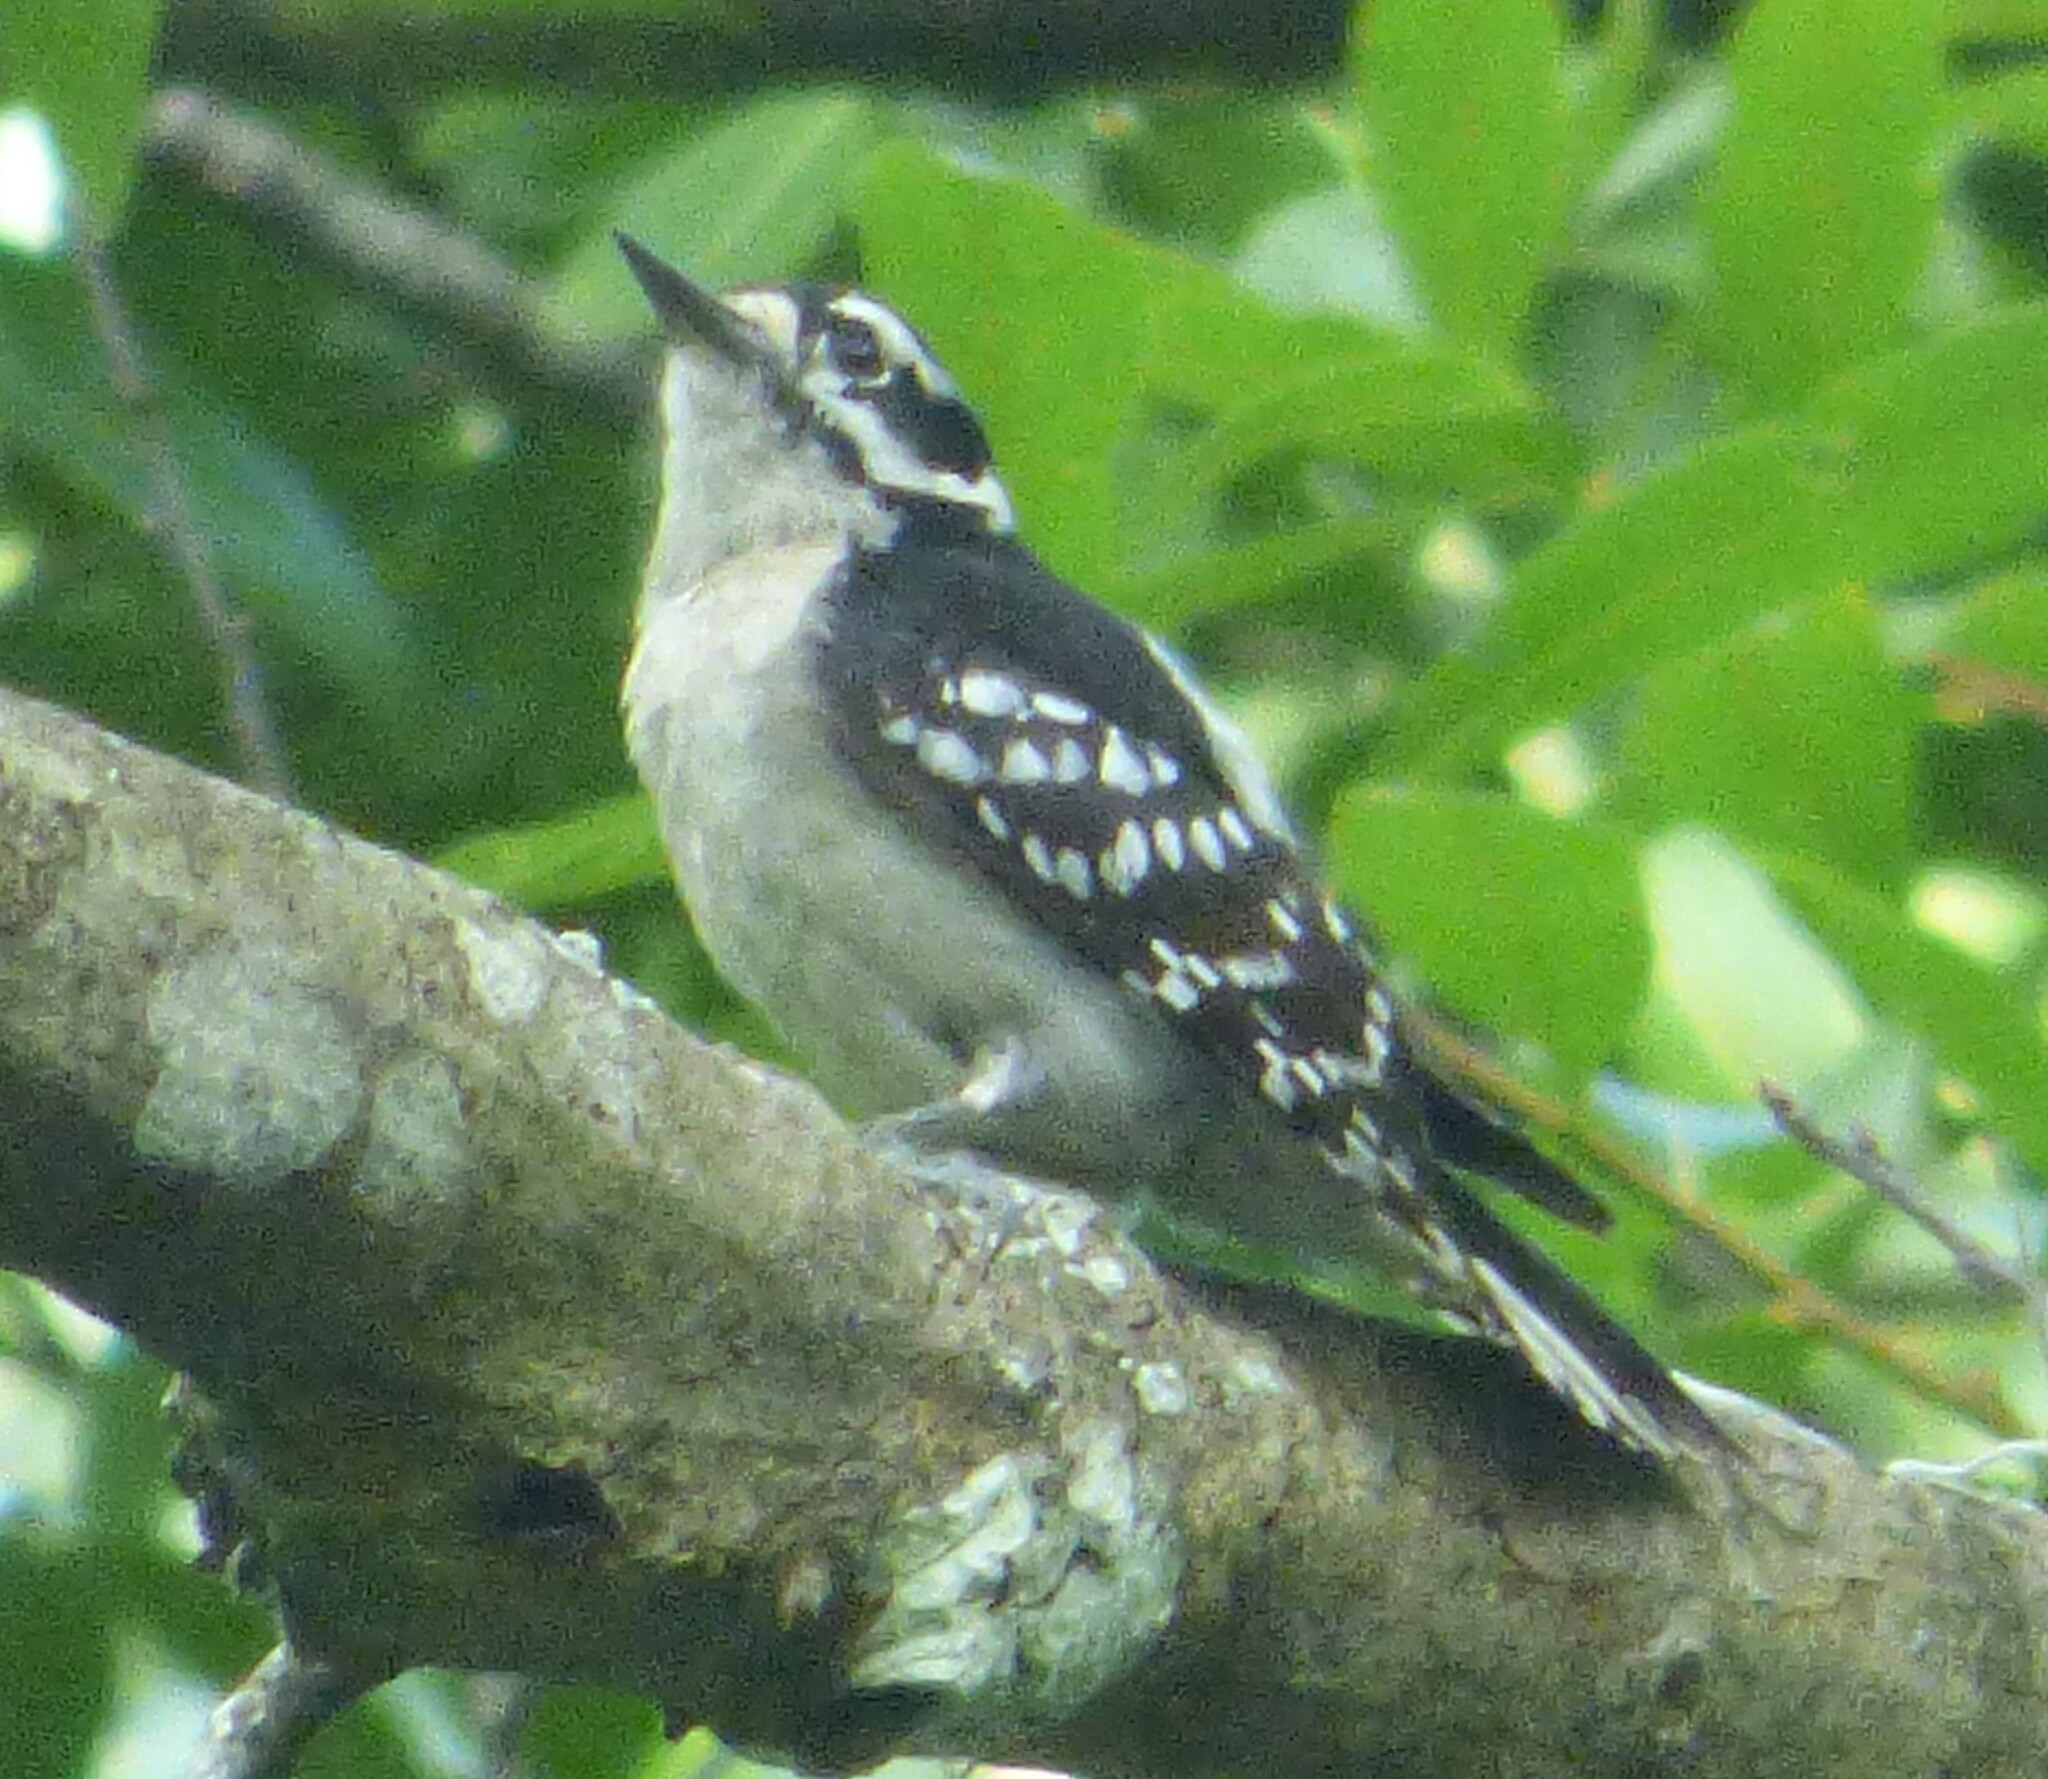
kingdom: Animalia
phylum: Chordata
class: Aves
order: Piciformes
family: Picidae
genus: Dryobates
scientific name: Dryobates pubescens
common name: Downy woodpecker
